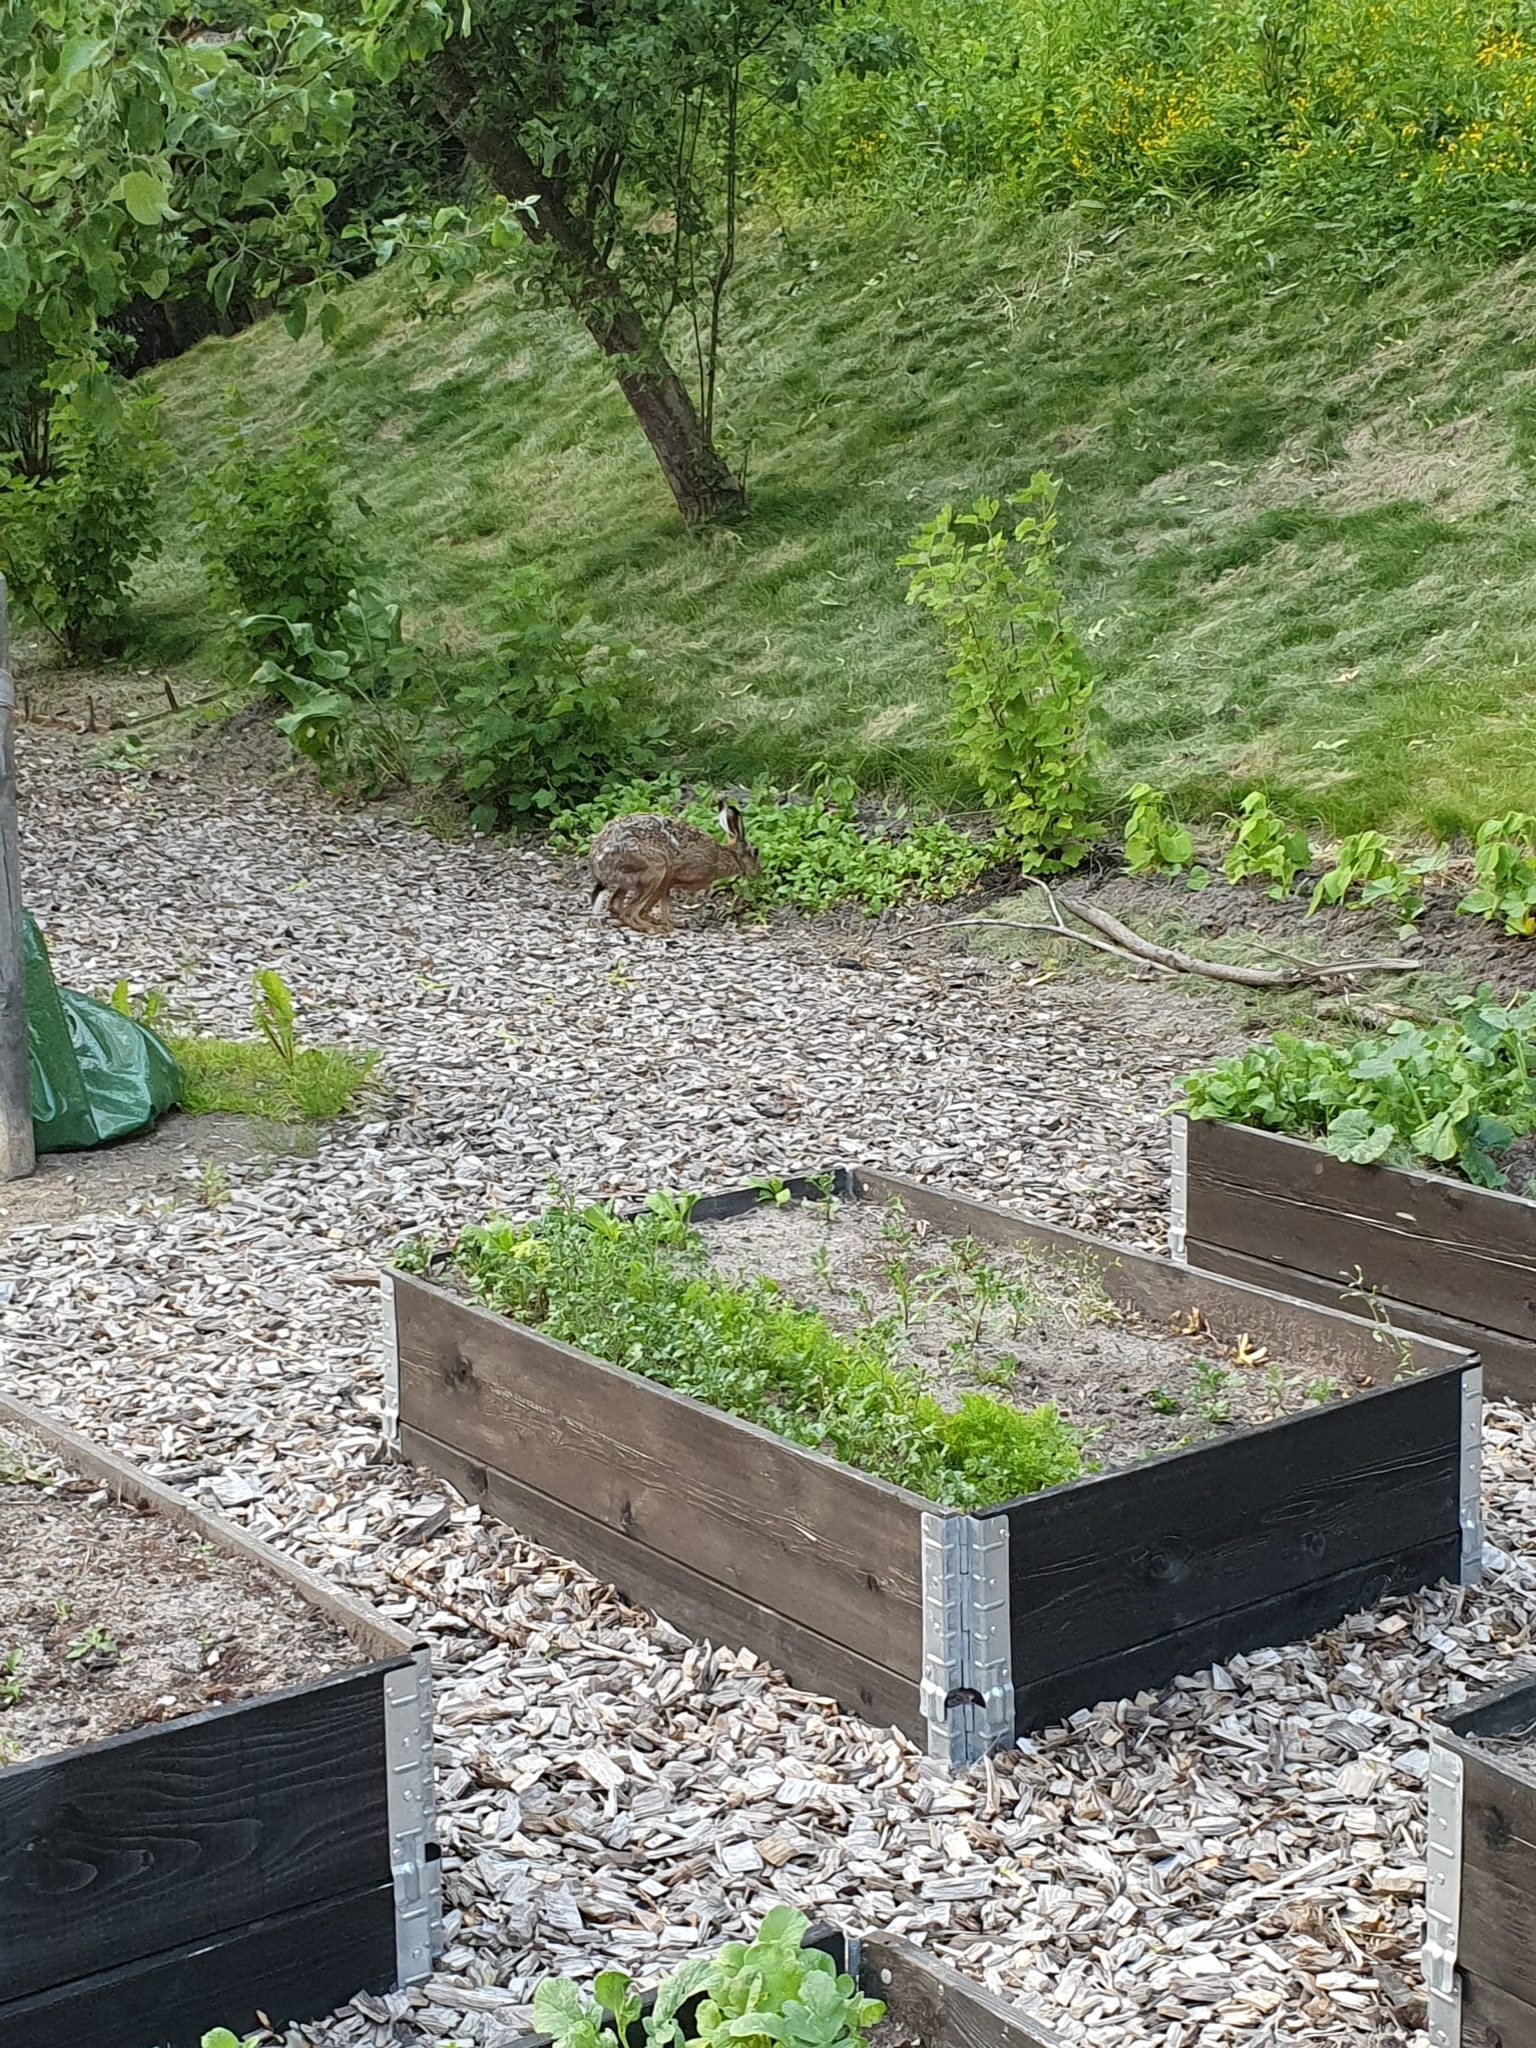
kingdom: Animalia
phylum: Chordata
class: Mammalia
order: Lagomorpha
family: Leporidae
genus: Lepus
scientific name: Lepus europaeus
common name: European hare
